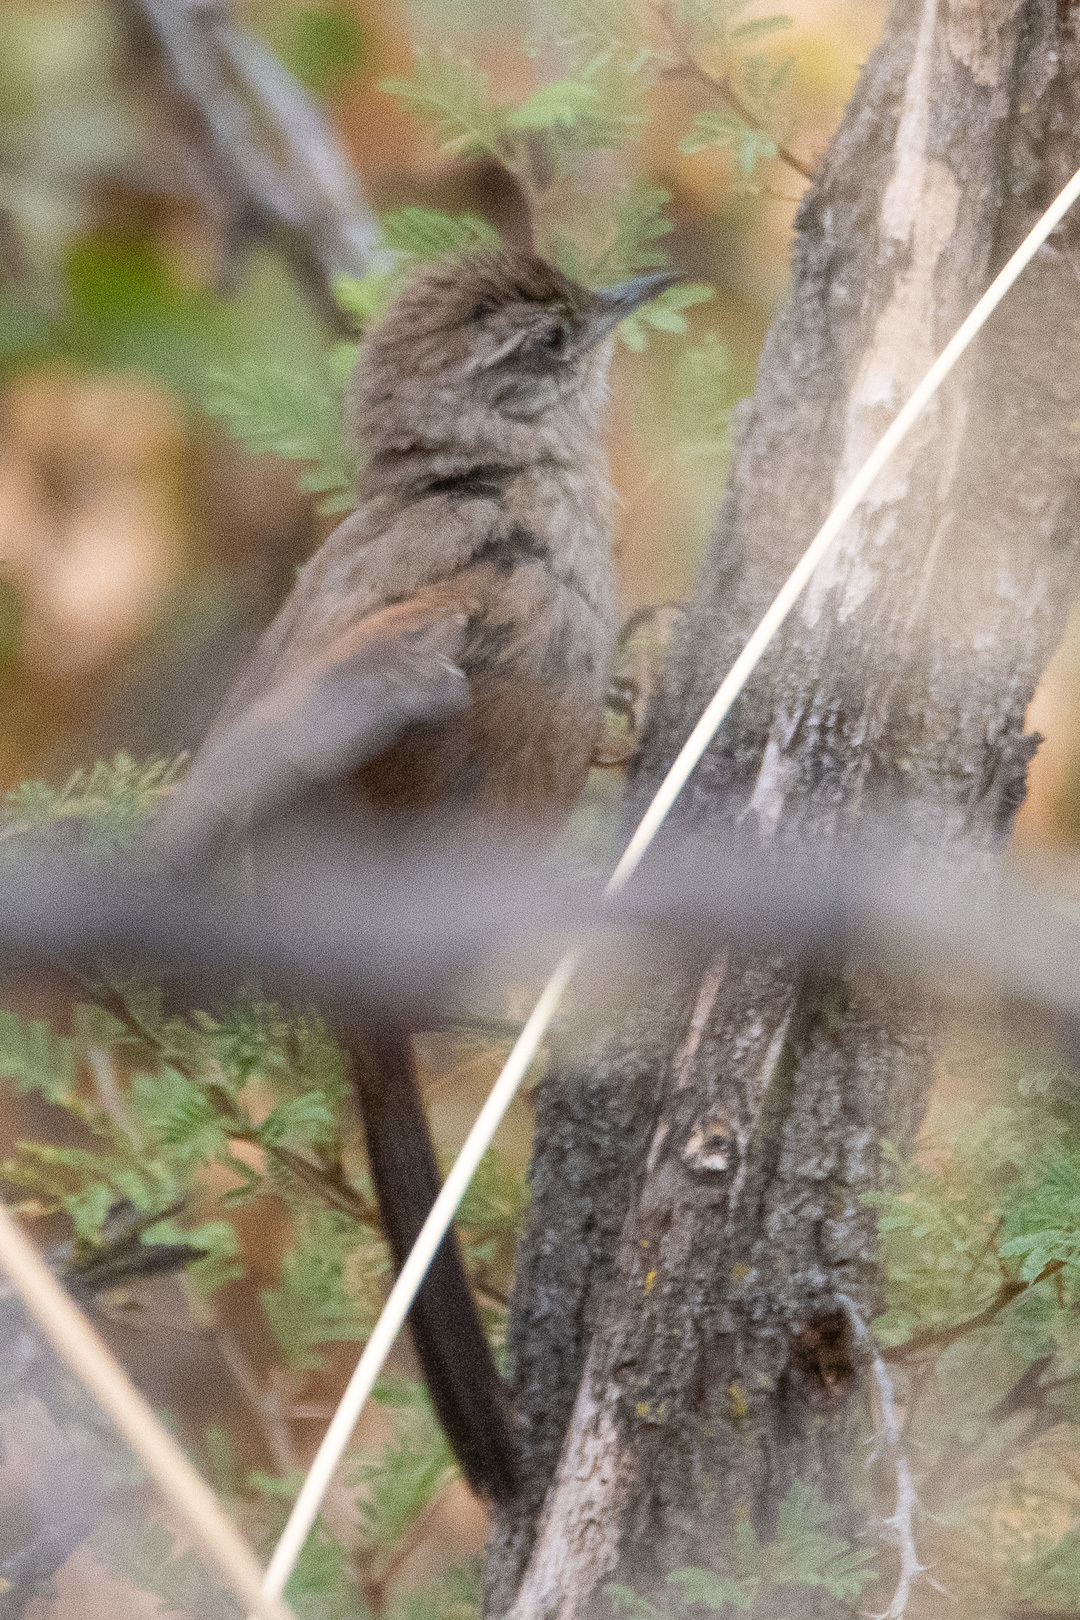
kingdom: Animalia
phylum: Chordata
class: Aves
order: Passeriformes
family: Furnariidae
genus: Asthenes
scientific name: Asthenes humicola
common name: Dusky-tailed canastero
